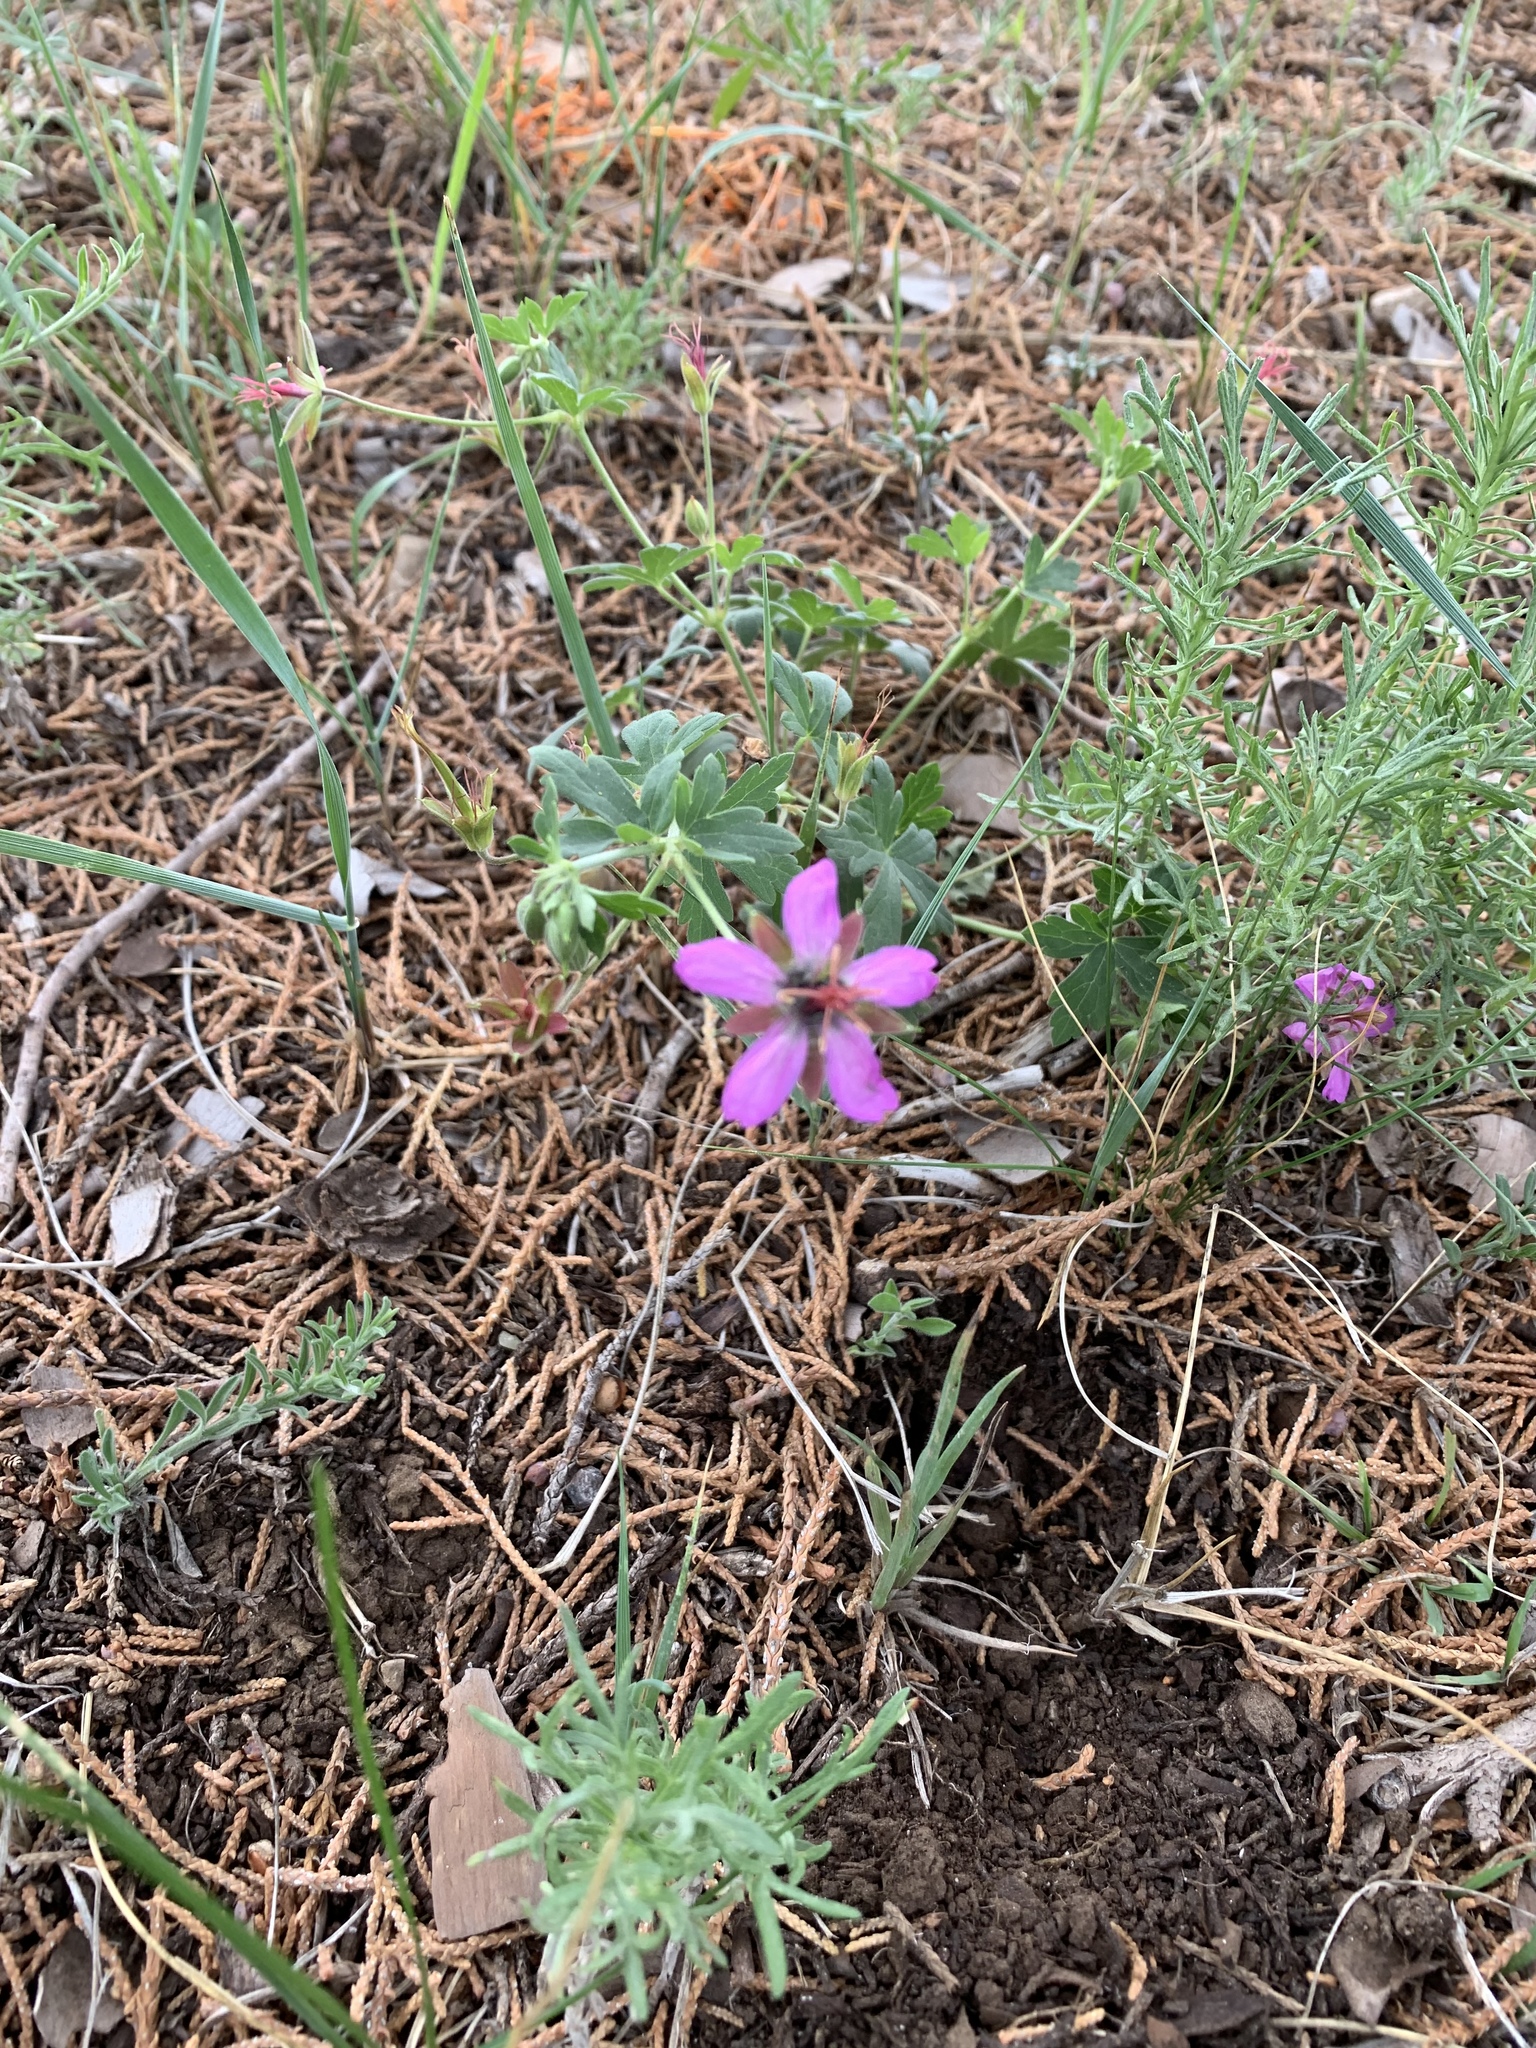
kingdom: Plantae
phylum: Tracheophyta
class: Magnoliopsida
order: Geraniales
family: Geraniaceae
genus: Geranium
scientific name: Geranium caespitosum
